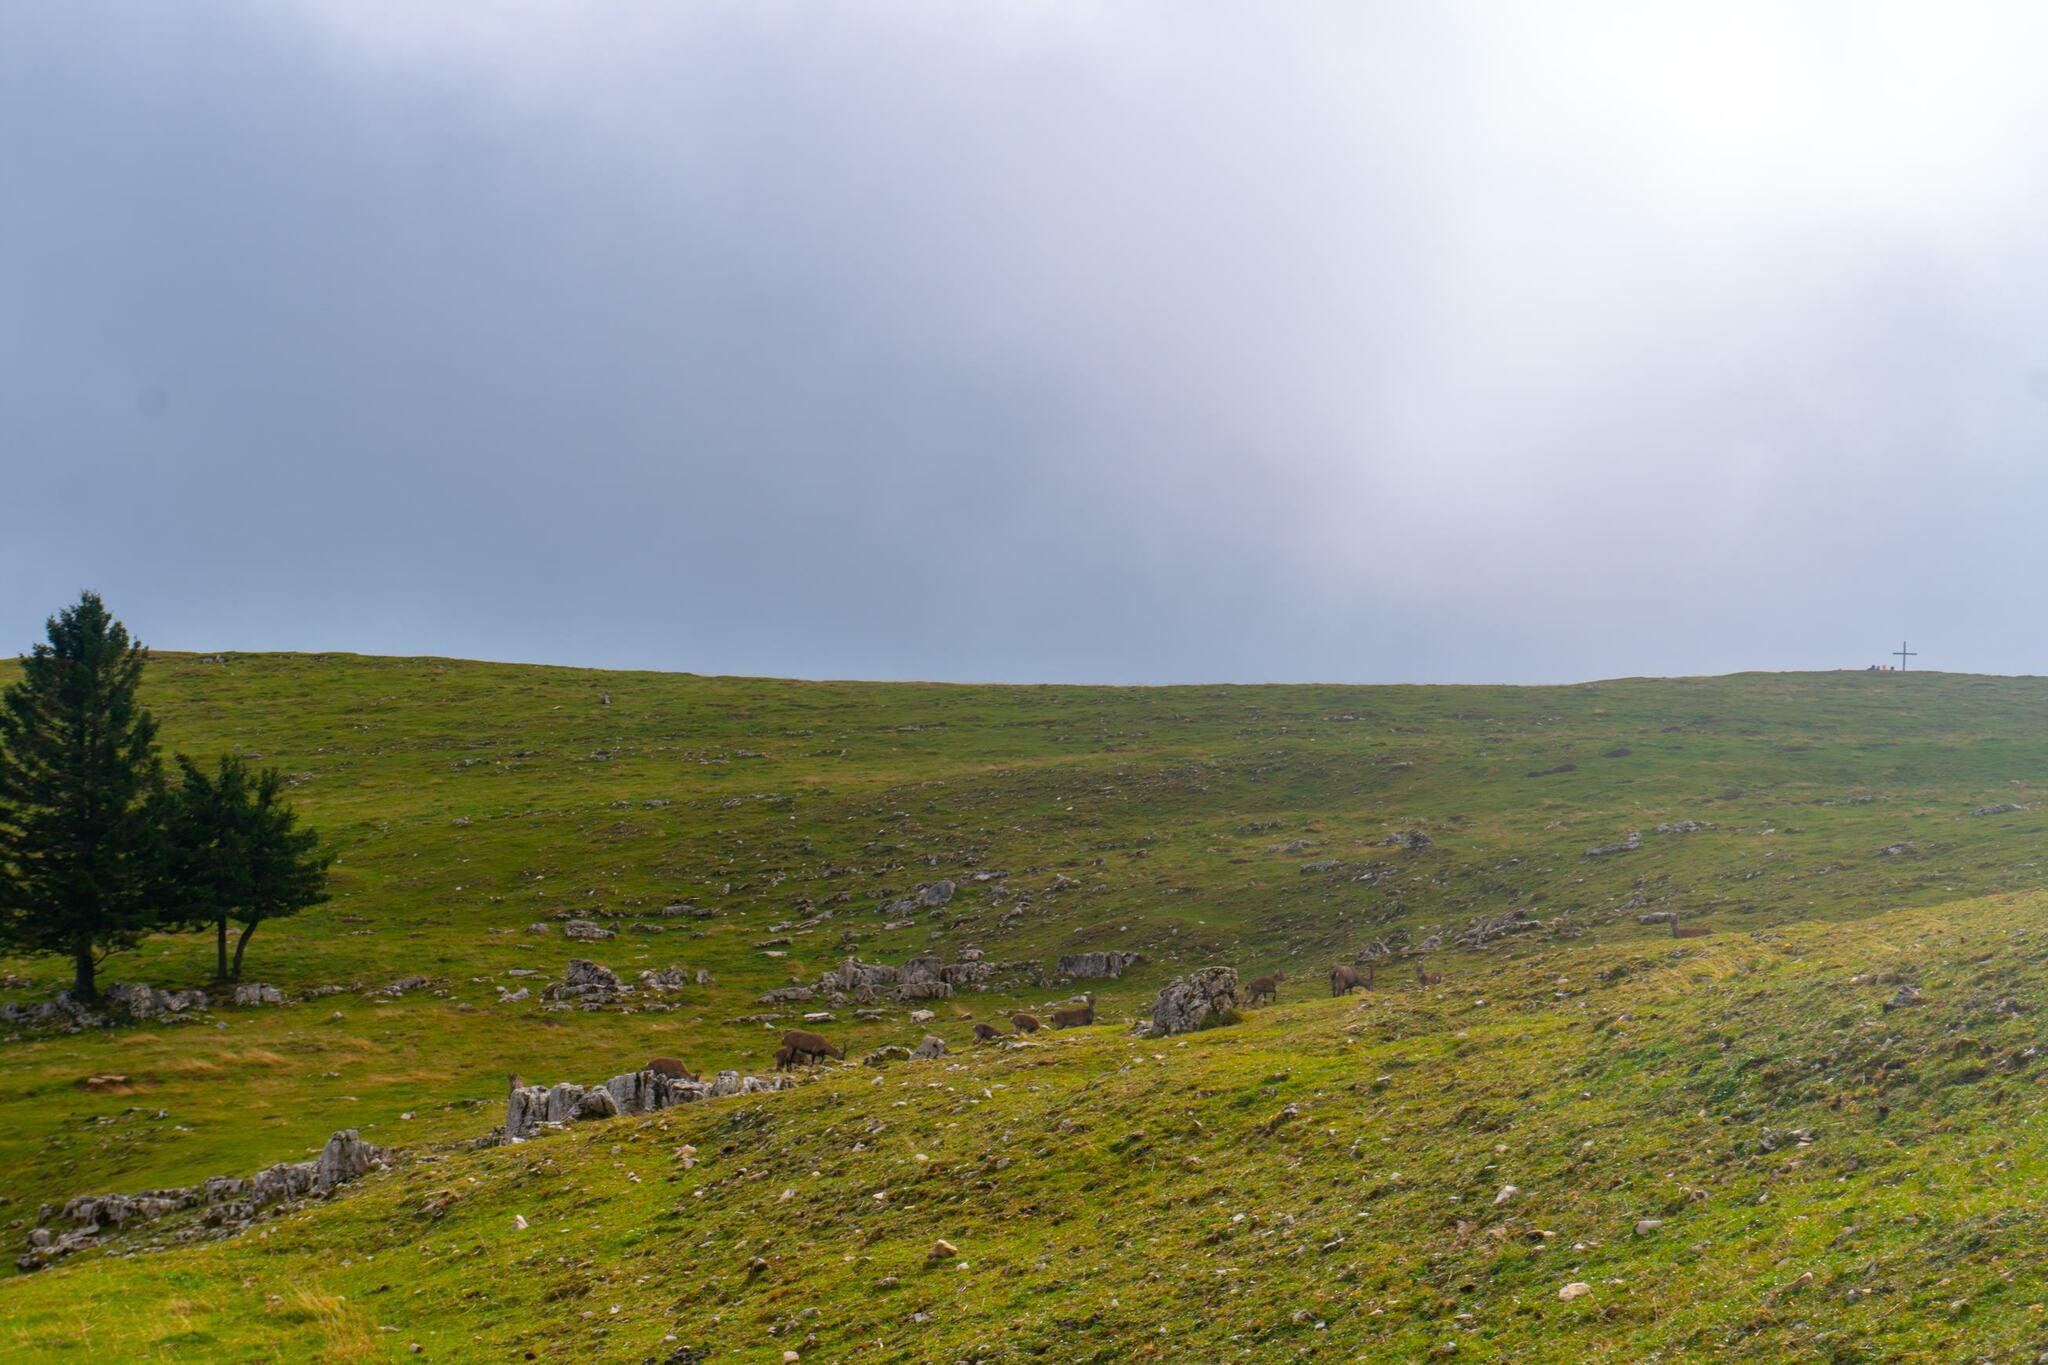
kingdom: Animalia
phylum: Chordata
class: Mammalia
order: Artiodactyla
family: Bovidae
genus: Capra
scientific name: Capra ibex
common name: Alpine ibex
